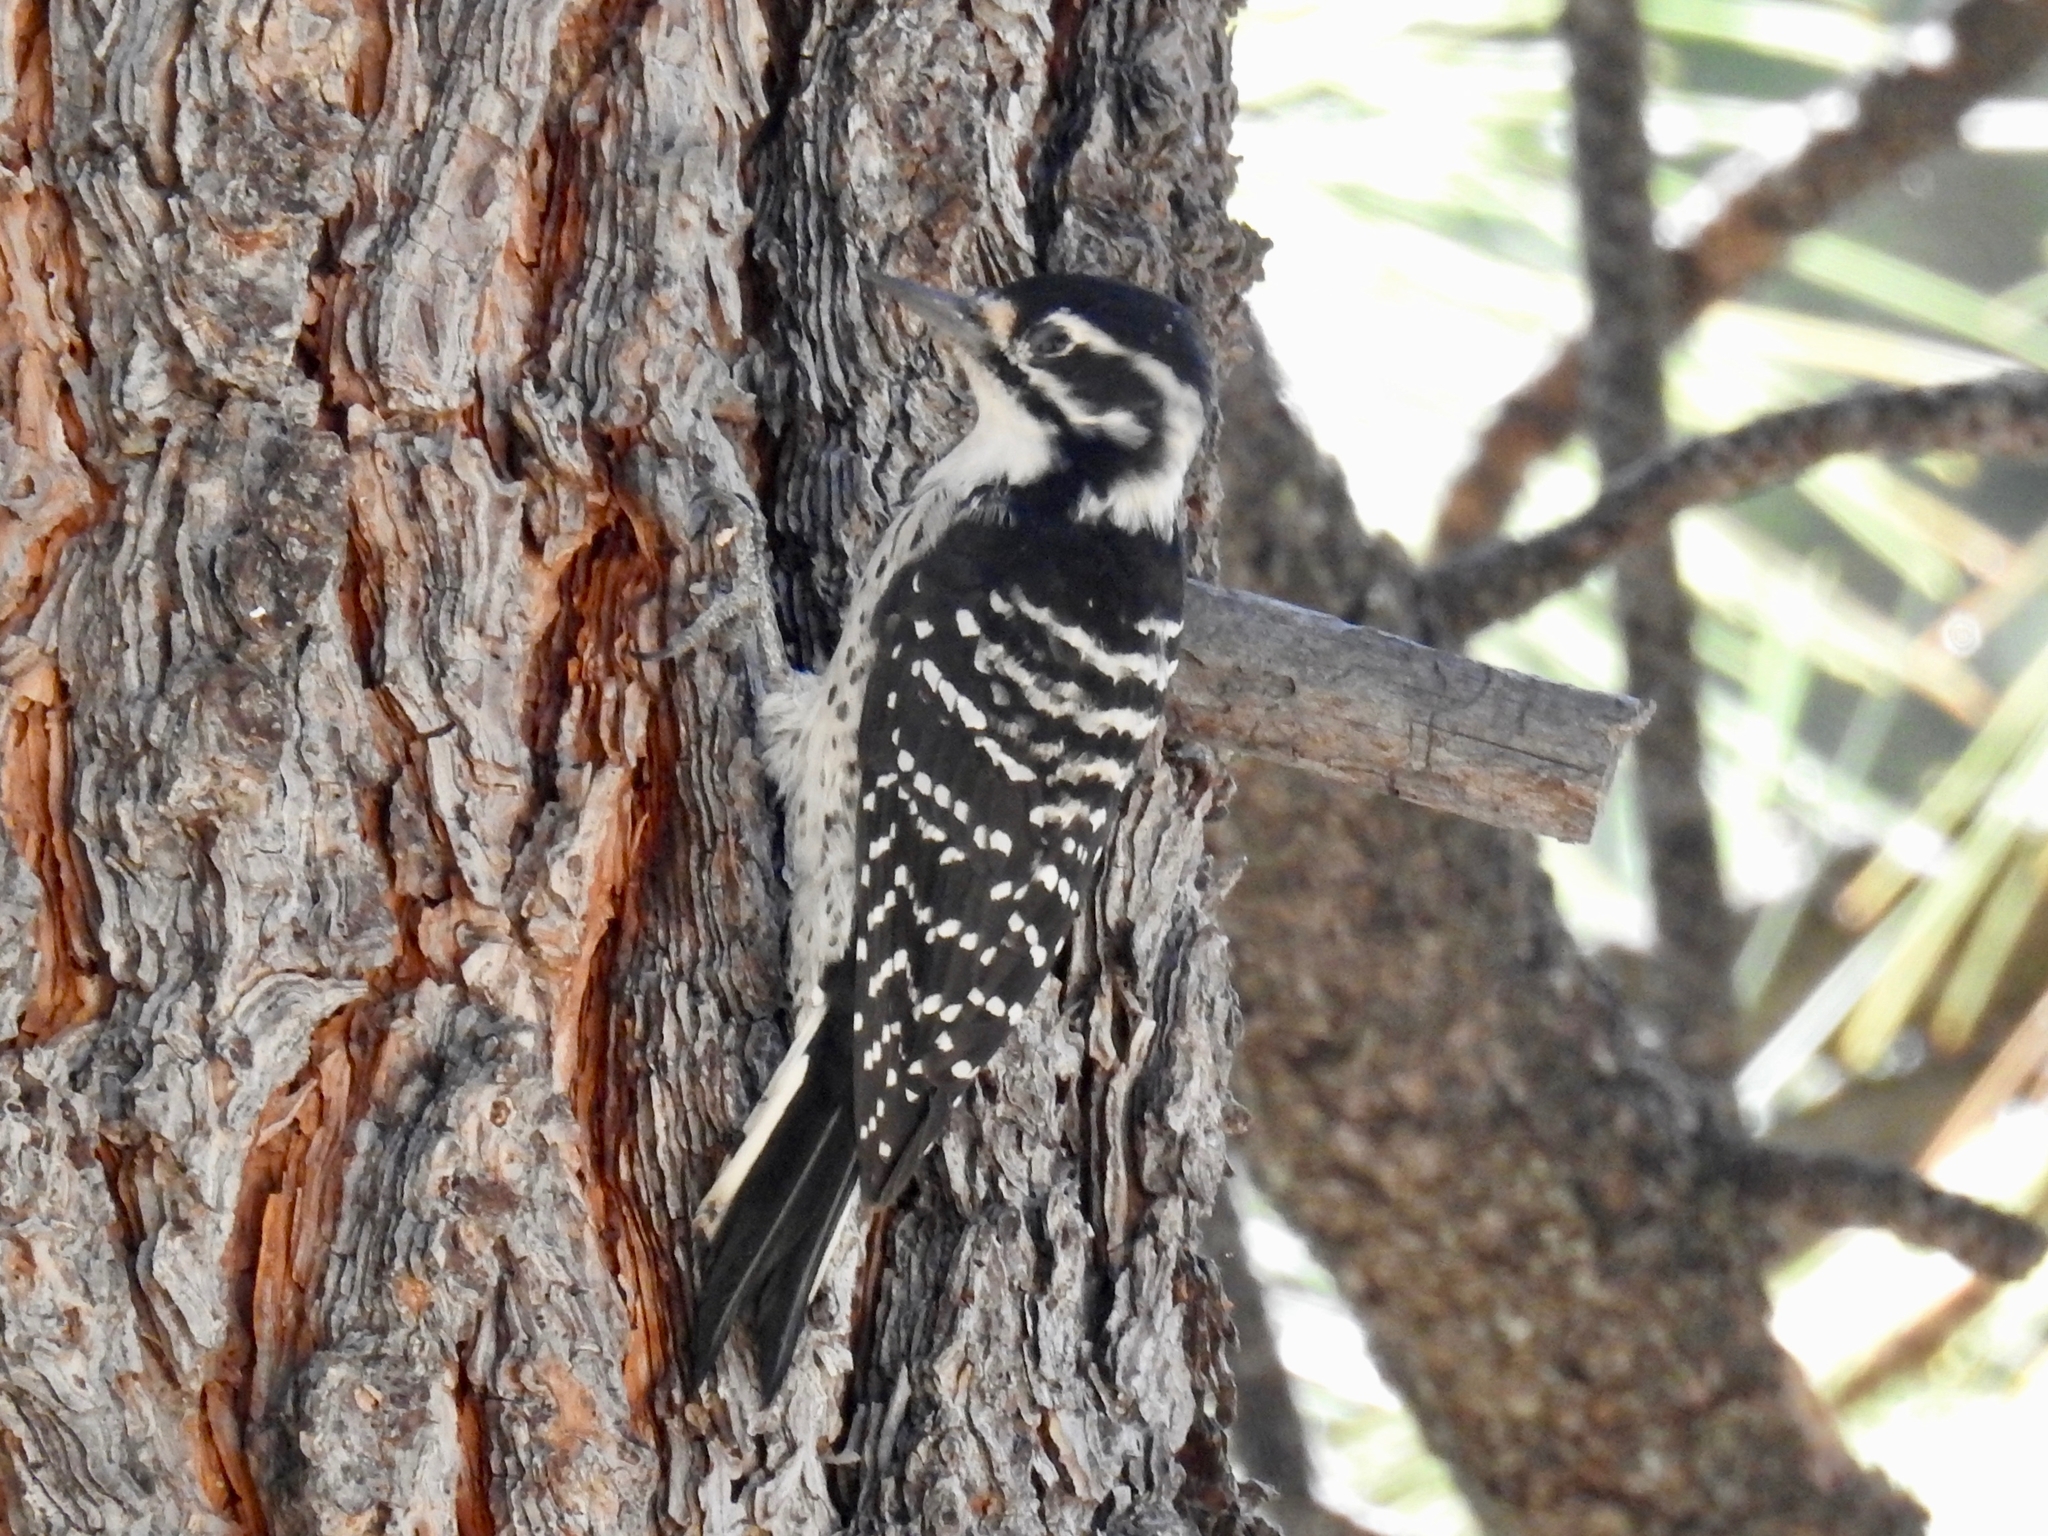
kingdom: Animalia
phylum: Chordata
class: Aves
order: Piciformes
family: Picidae
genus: Dryobates
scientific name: Dryobates nuttallii
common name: Nuttall's woodpecker
